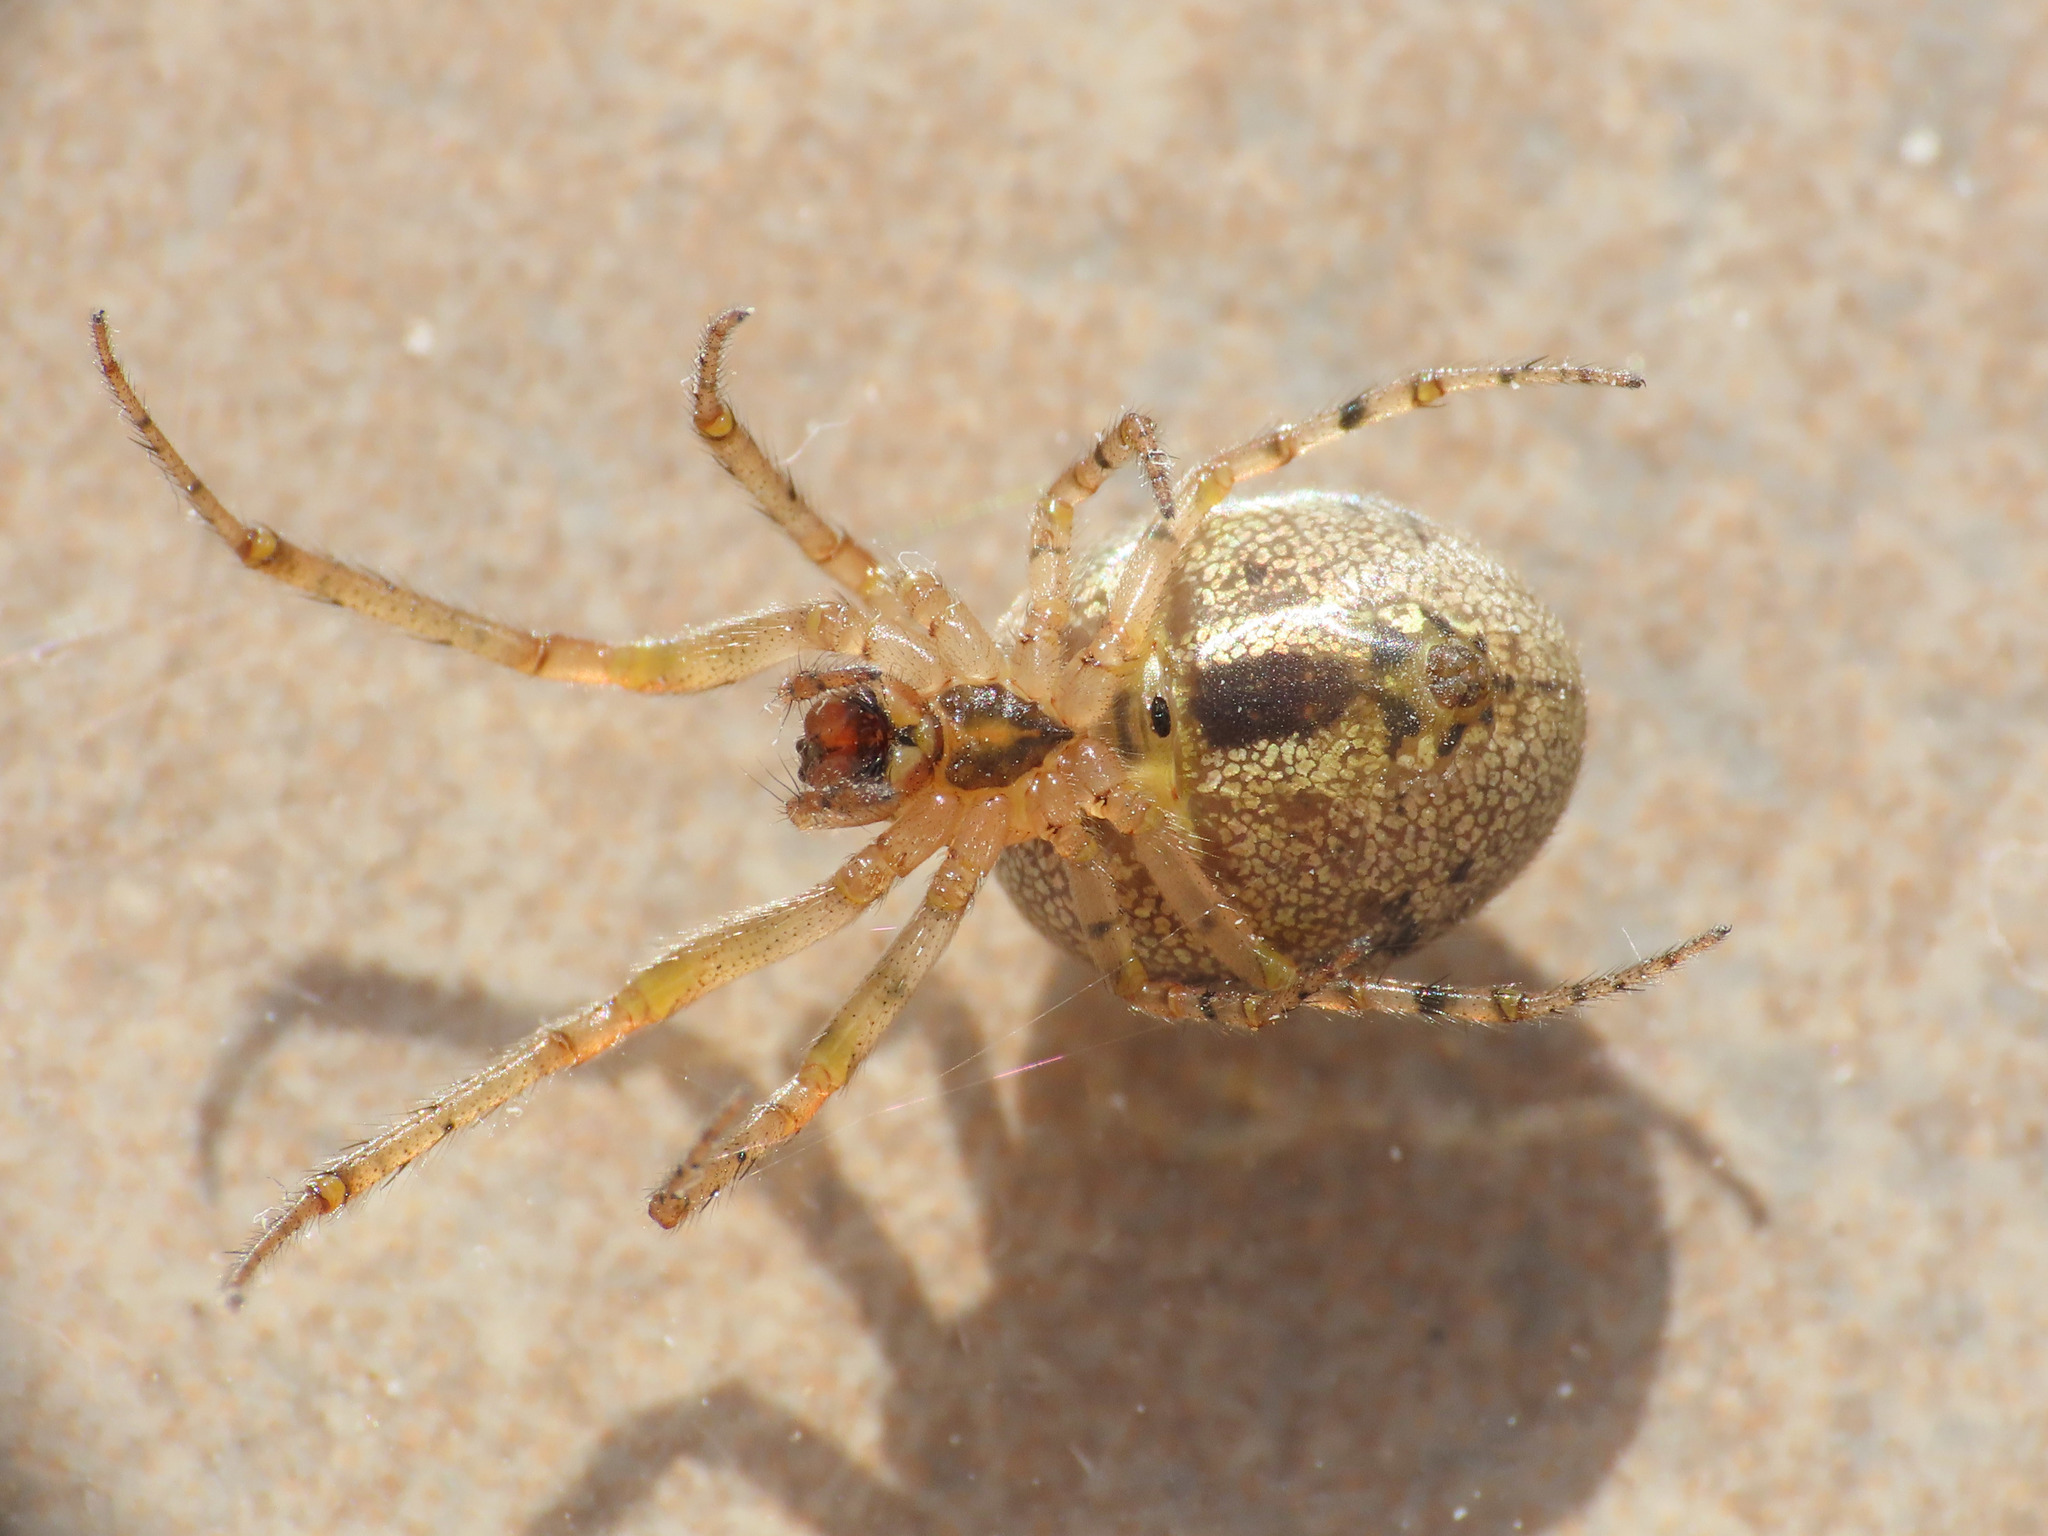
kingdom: Animalia
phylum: Arthropoda
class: Arachnida
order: Araneae
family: Araneidae
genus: Zygiella
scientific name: Zygiella x-notata
